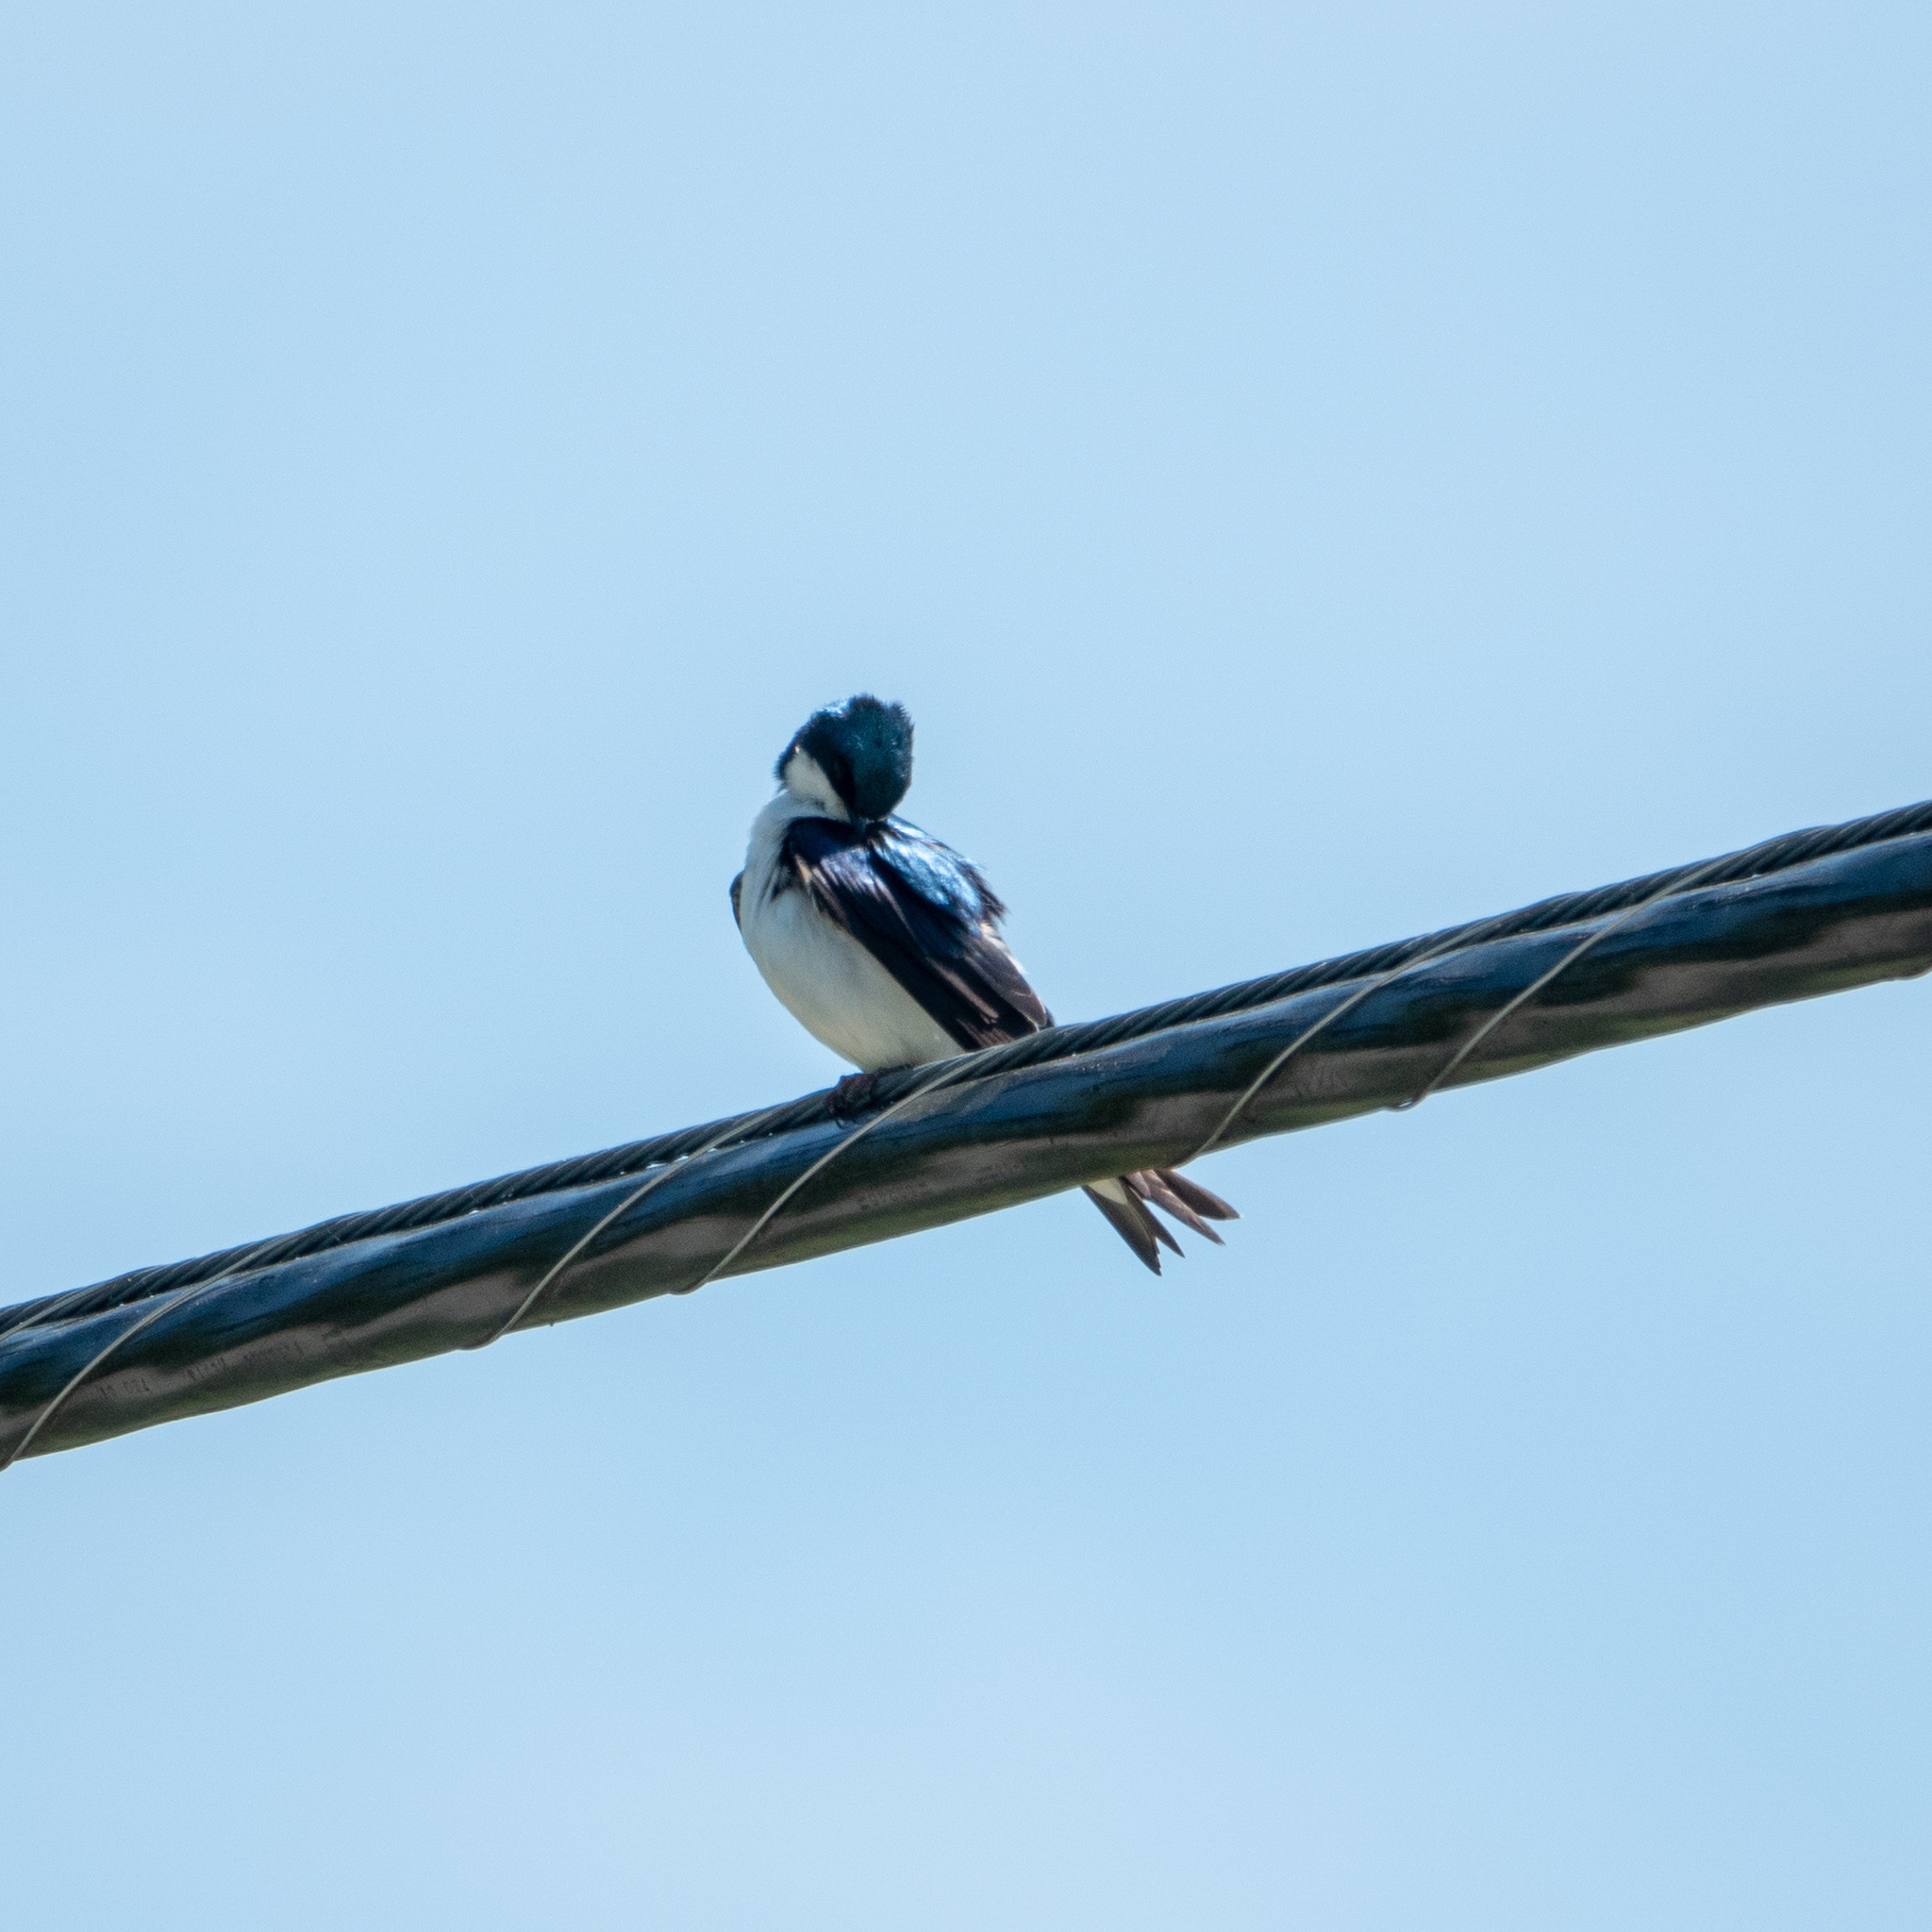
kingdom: Animalia
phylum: Chordata
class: Aves
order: Passeriformes
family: Hirundinidae
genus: Tachycineta
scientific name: Tachycineta bicolor
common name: Tree swallow
